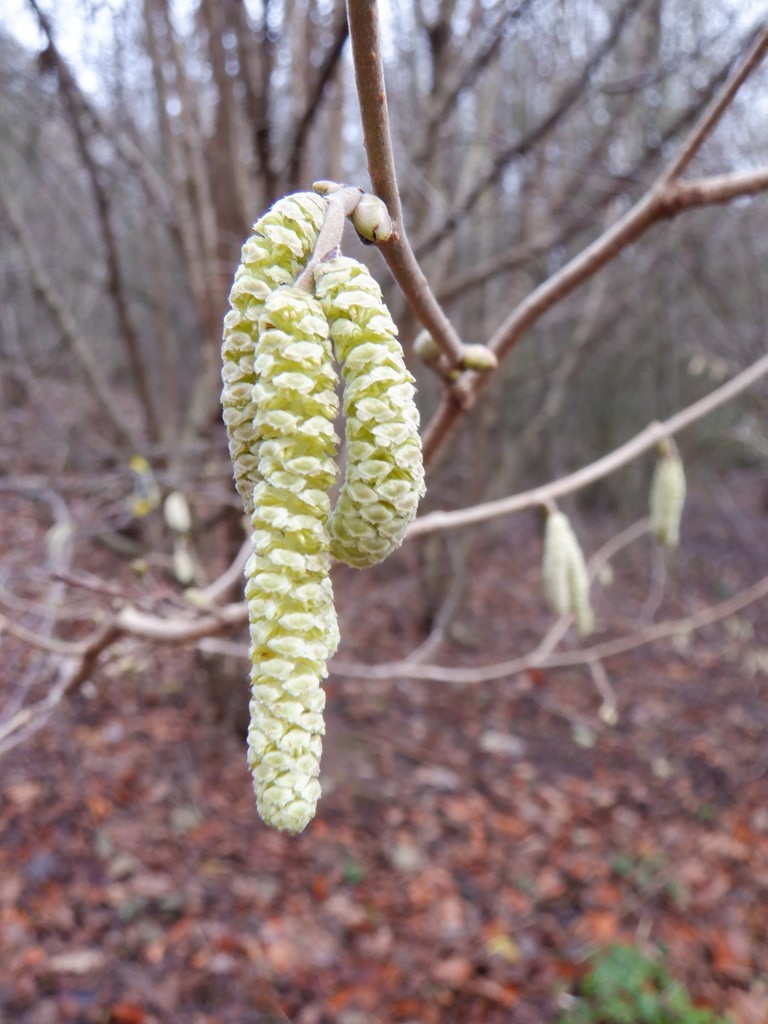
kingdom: Plantae
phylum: Tracheophyta
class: Magnoliopsida
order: Fagales
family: Betulaceae
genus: Corylus
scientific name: Corylus avellana
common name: European hazel
